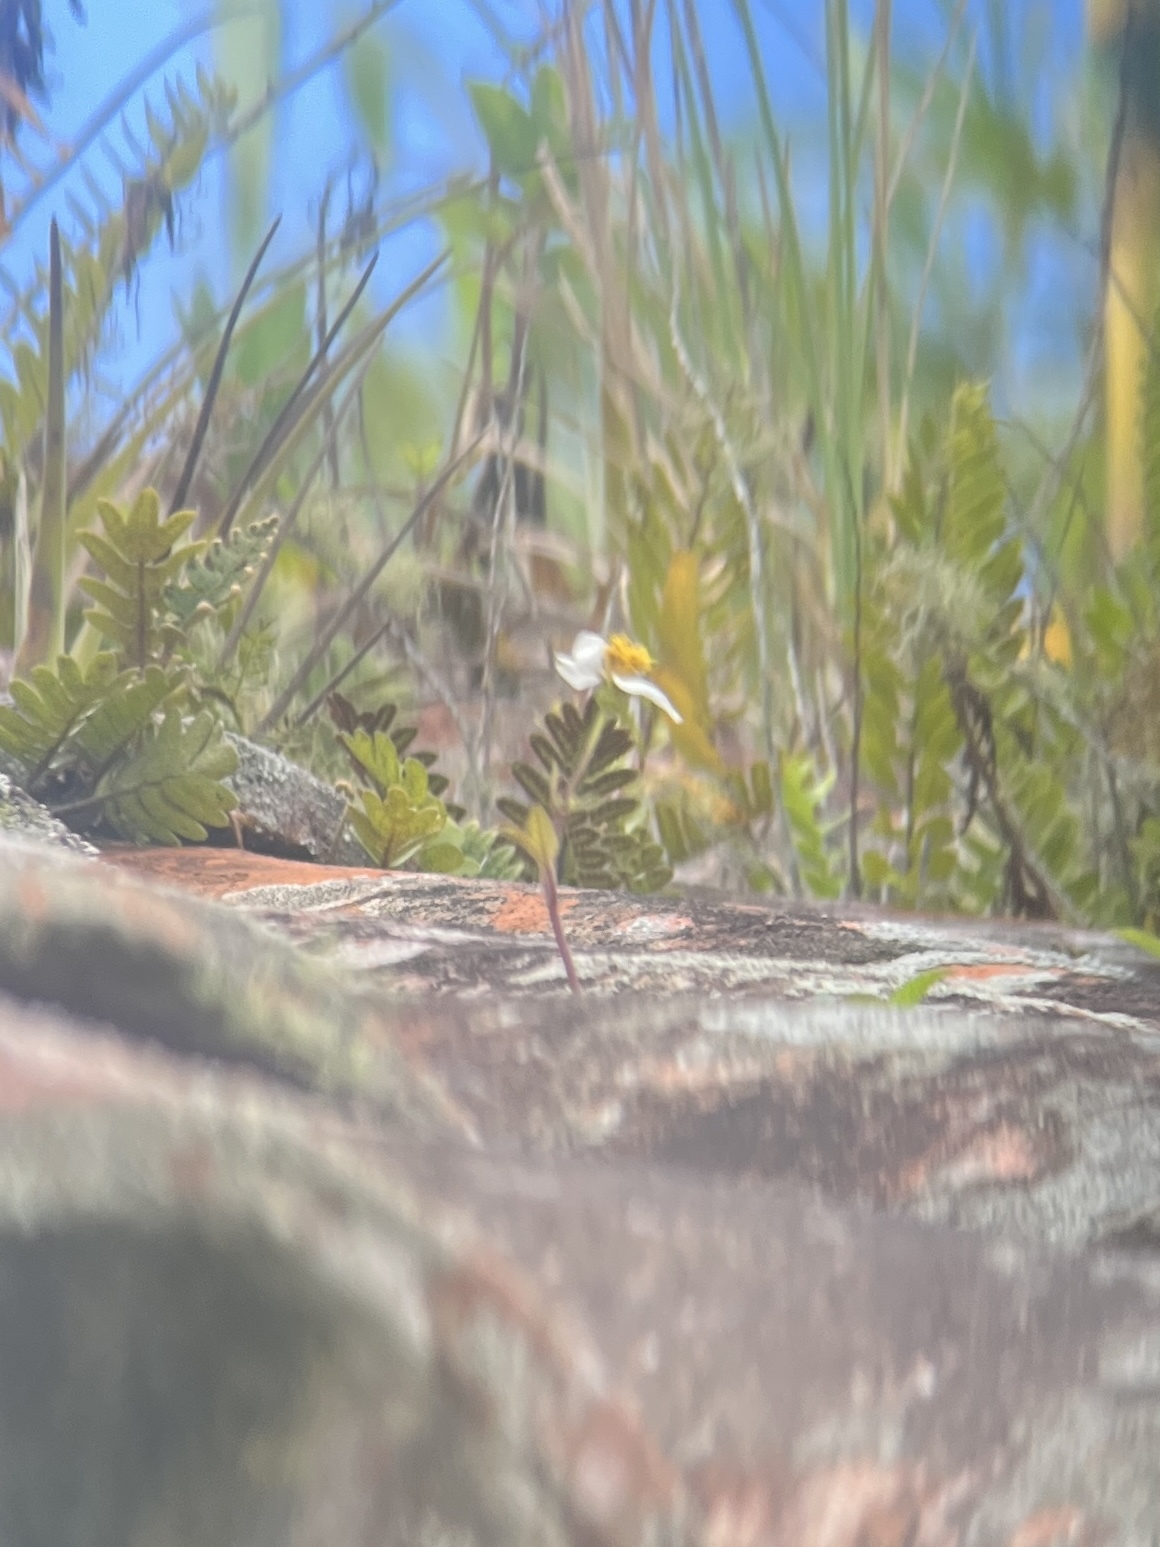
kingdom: Plantae
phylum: Tracheophyta
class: Polypodiopsida
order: Polypodiales
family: Polypodiaceae
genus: Pleopeltis
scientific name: Pleopeltis polypodioides
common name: Resurrection fern
